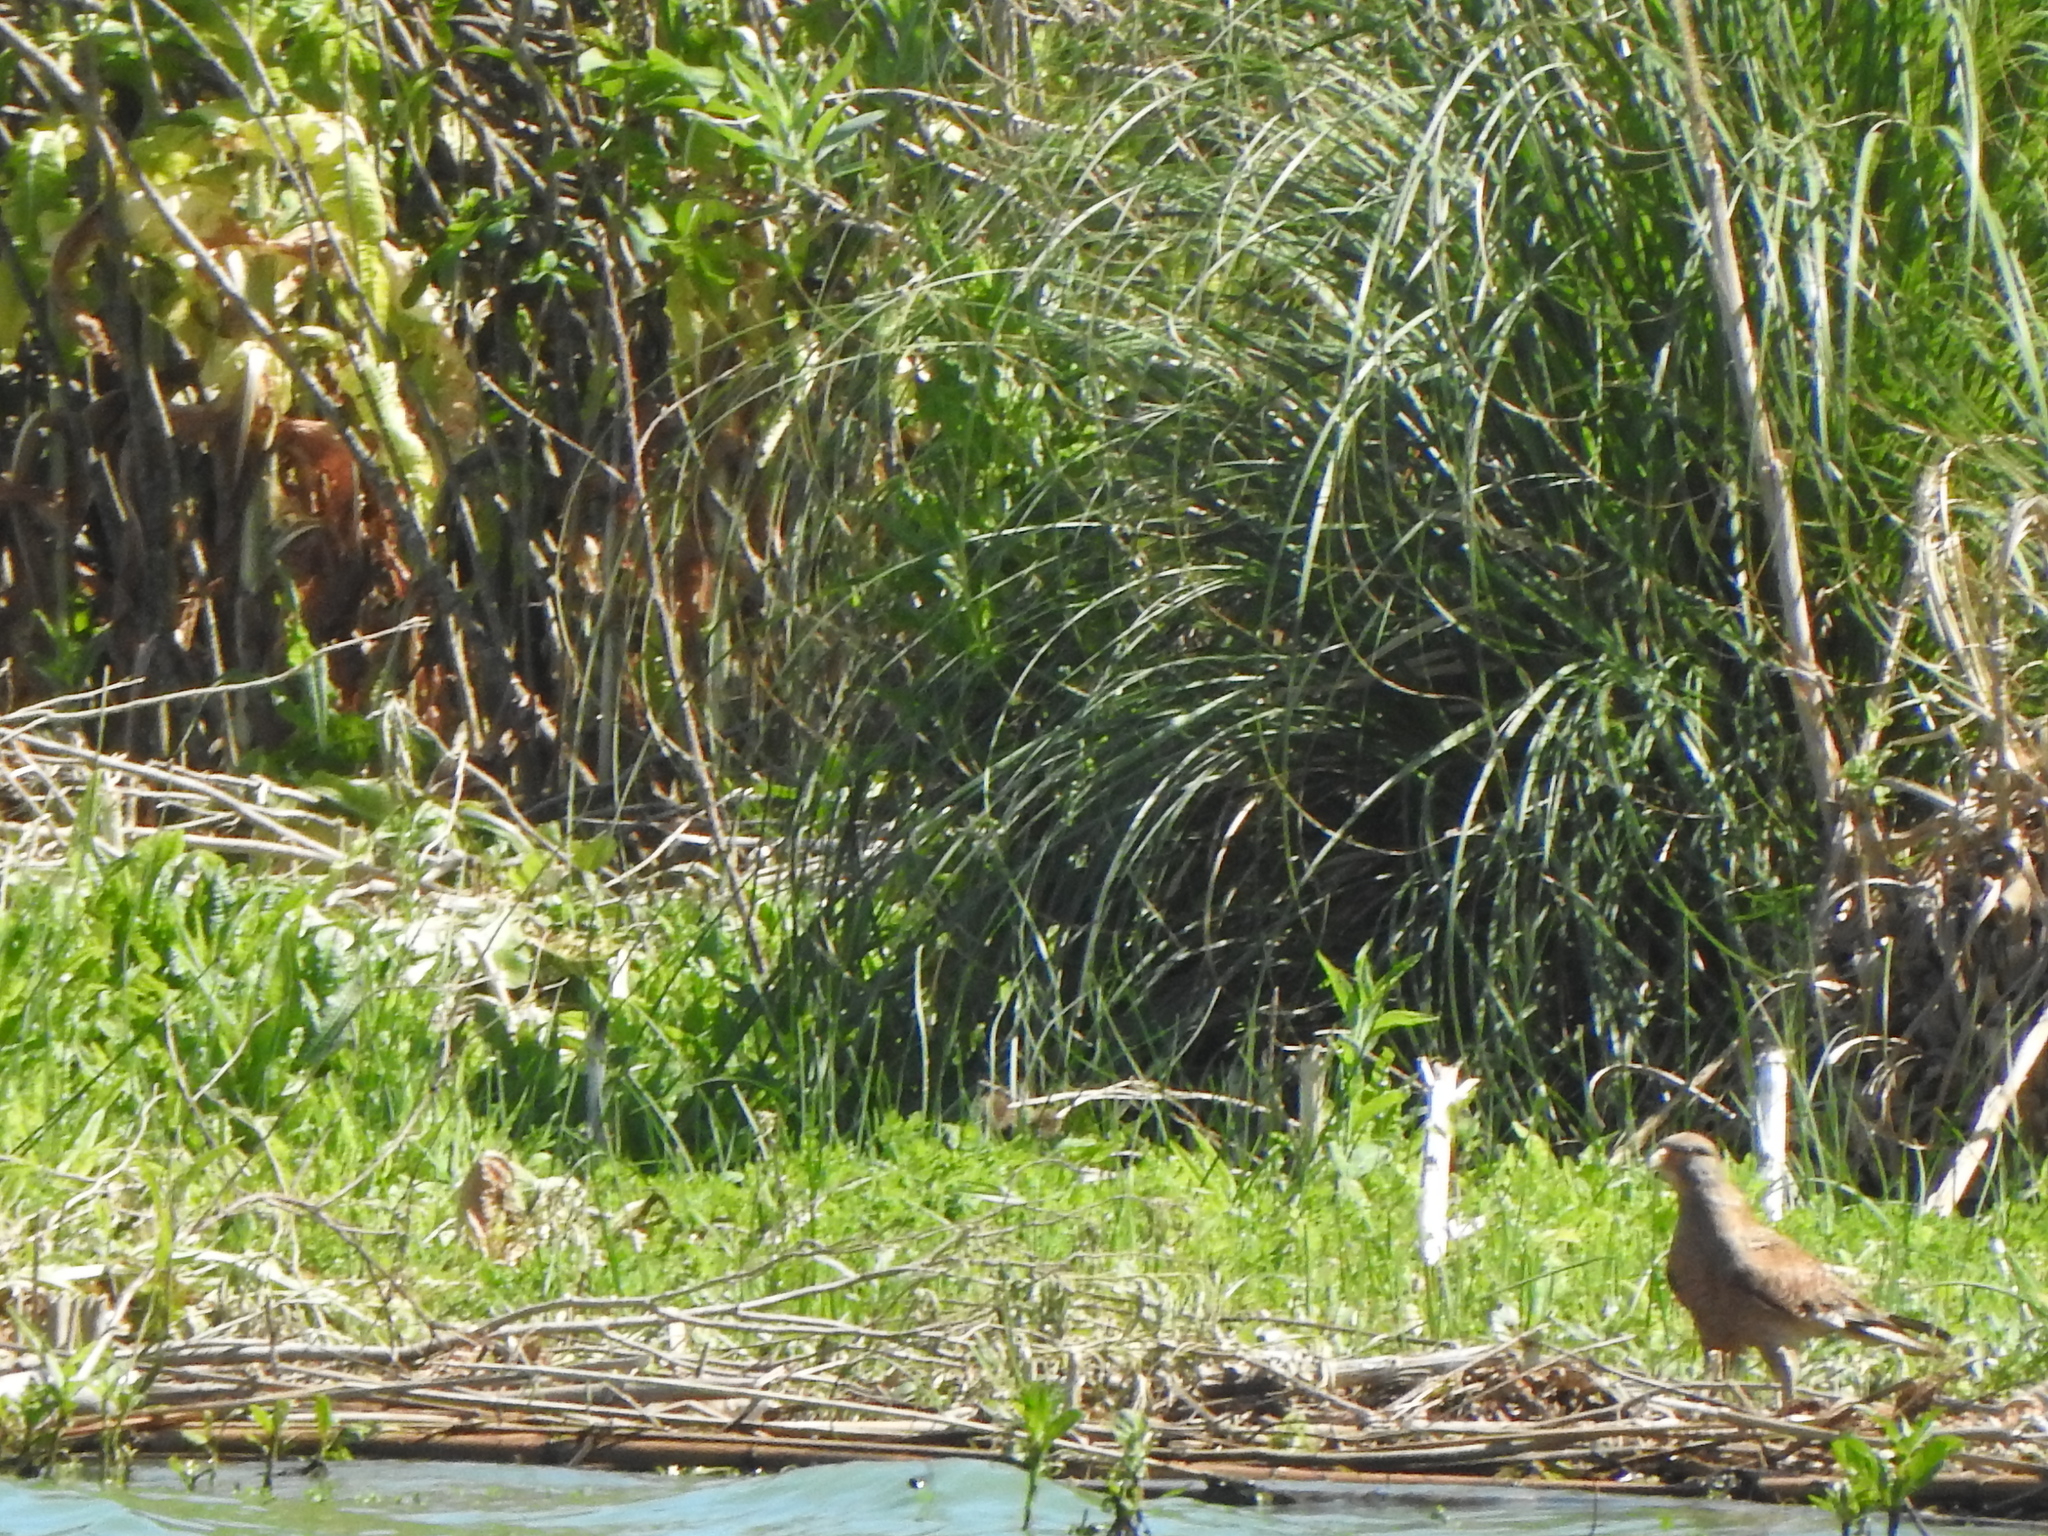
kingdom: Animalia
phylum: Chordata
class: Aves
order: Falconiformes
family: Falconidae
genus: Daptrius
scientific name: Daptrius
